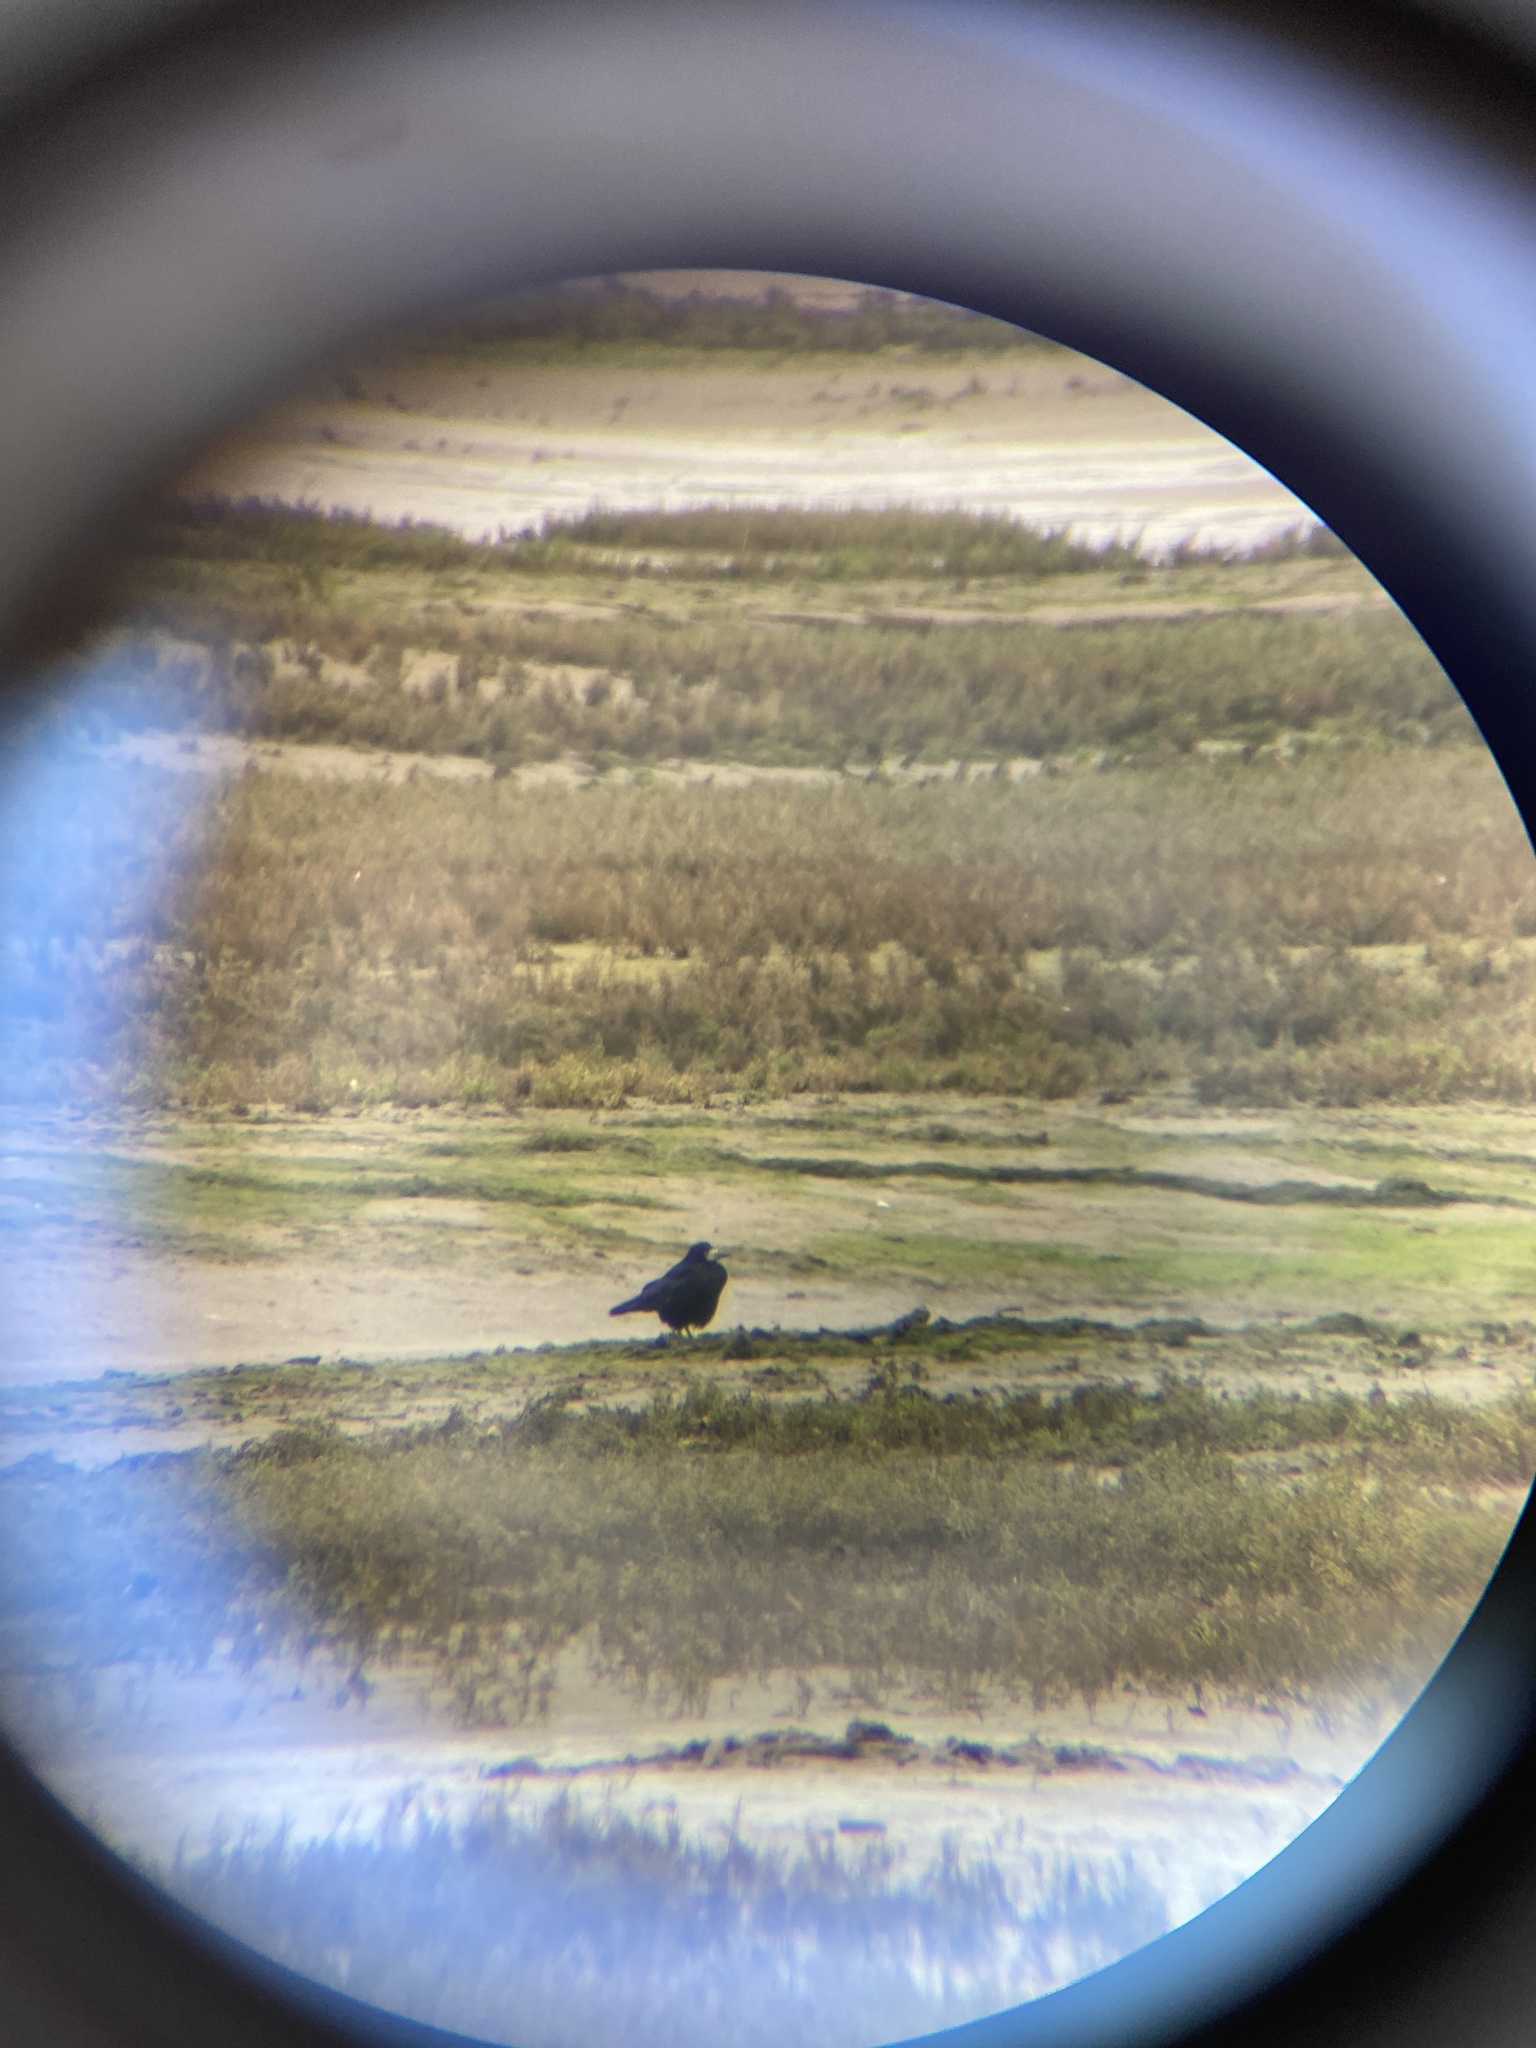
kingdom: Animalia
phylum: Chordata
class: Aves
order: Passeriformes
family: Corvidae
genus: Corvus
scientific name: Corvus frugilegus
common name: Rook
